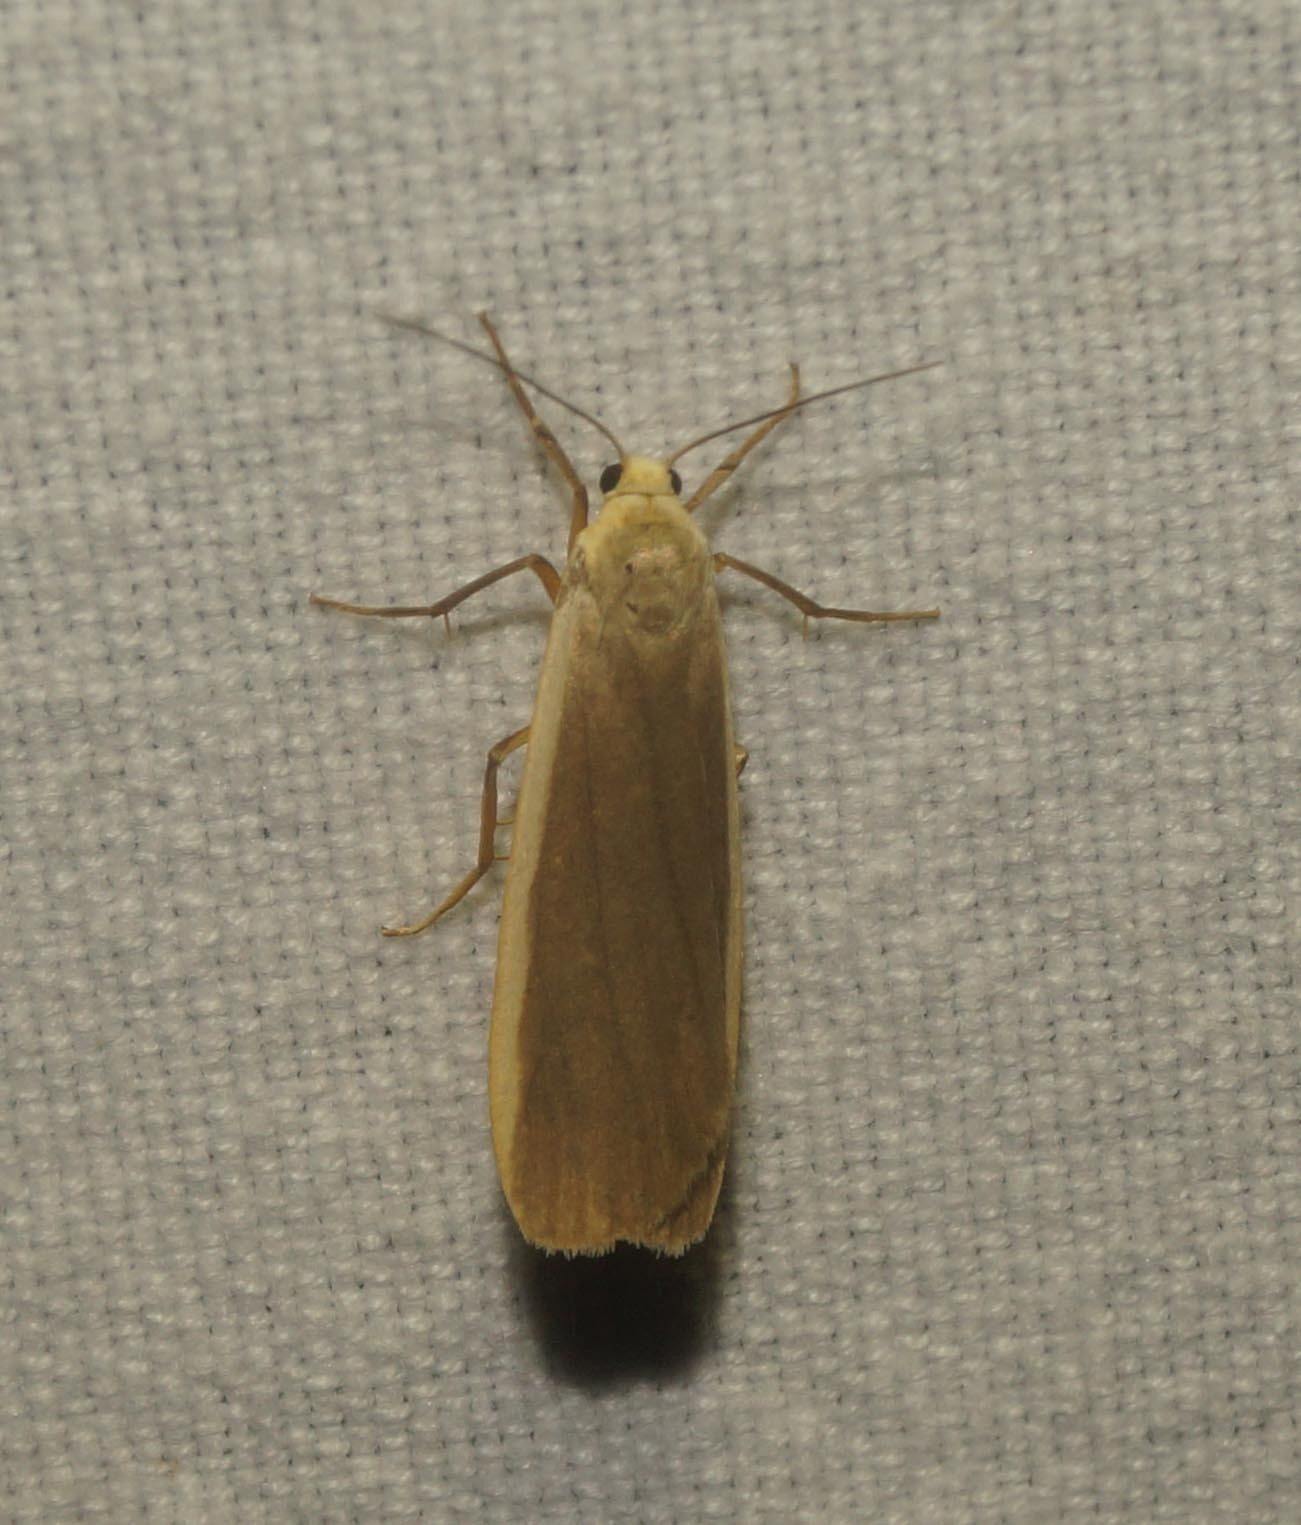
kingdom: Animalia
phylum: Arthropoda
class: Insecta
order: Lepidoptera
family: Erebidae
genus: Nyea
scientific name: Nyea lurideola
